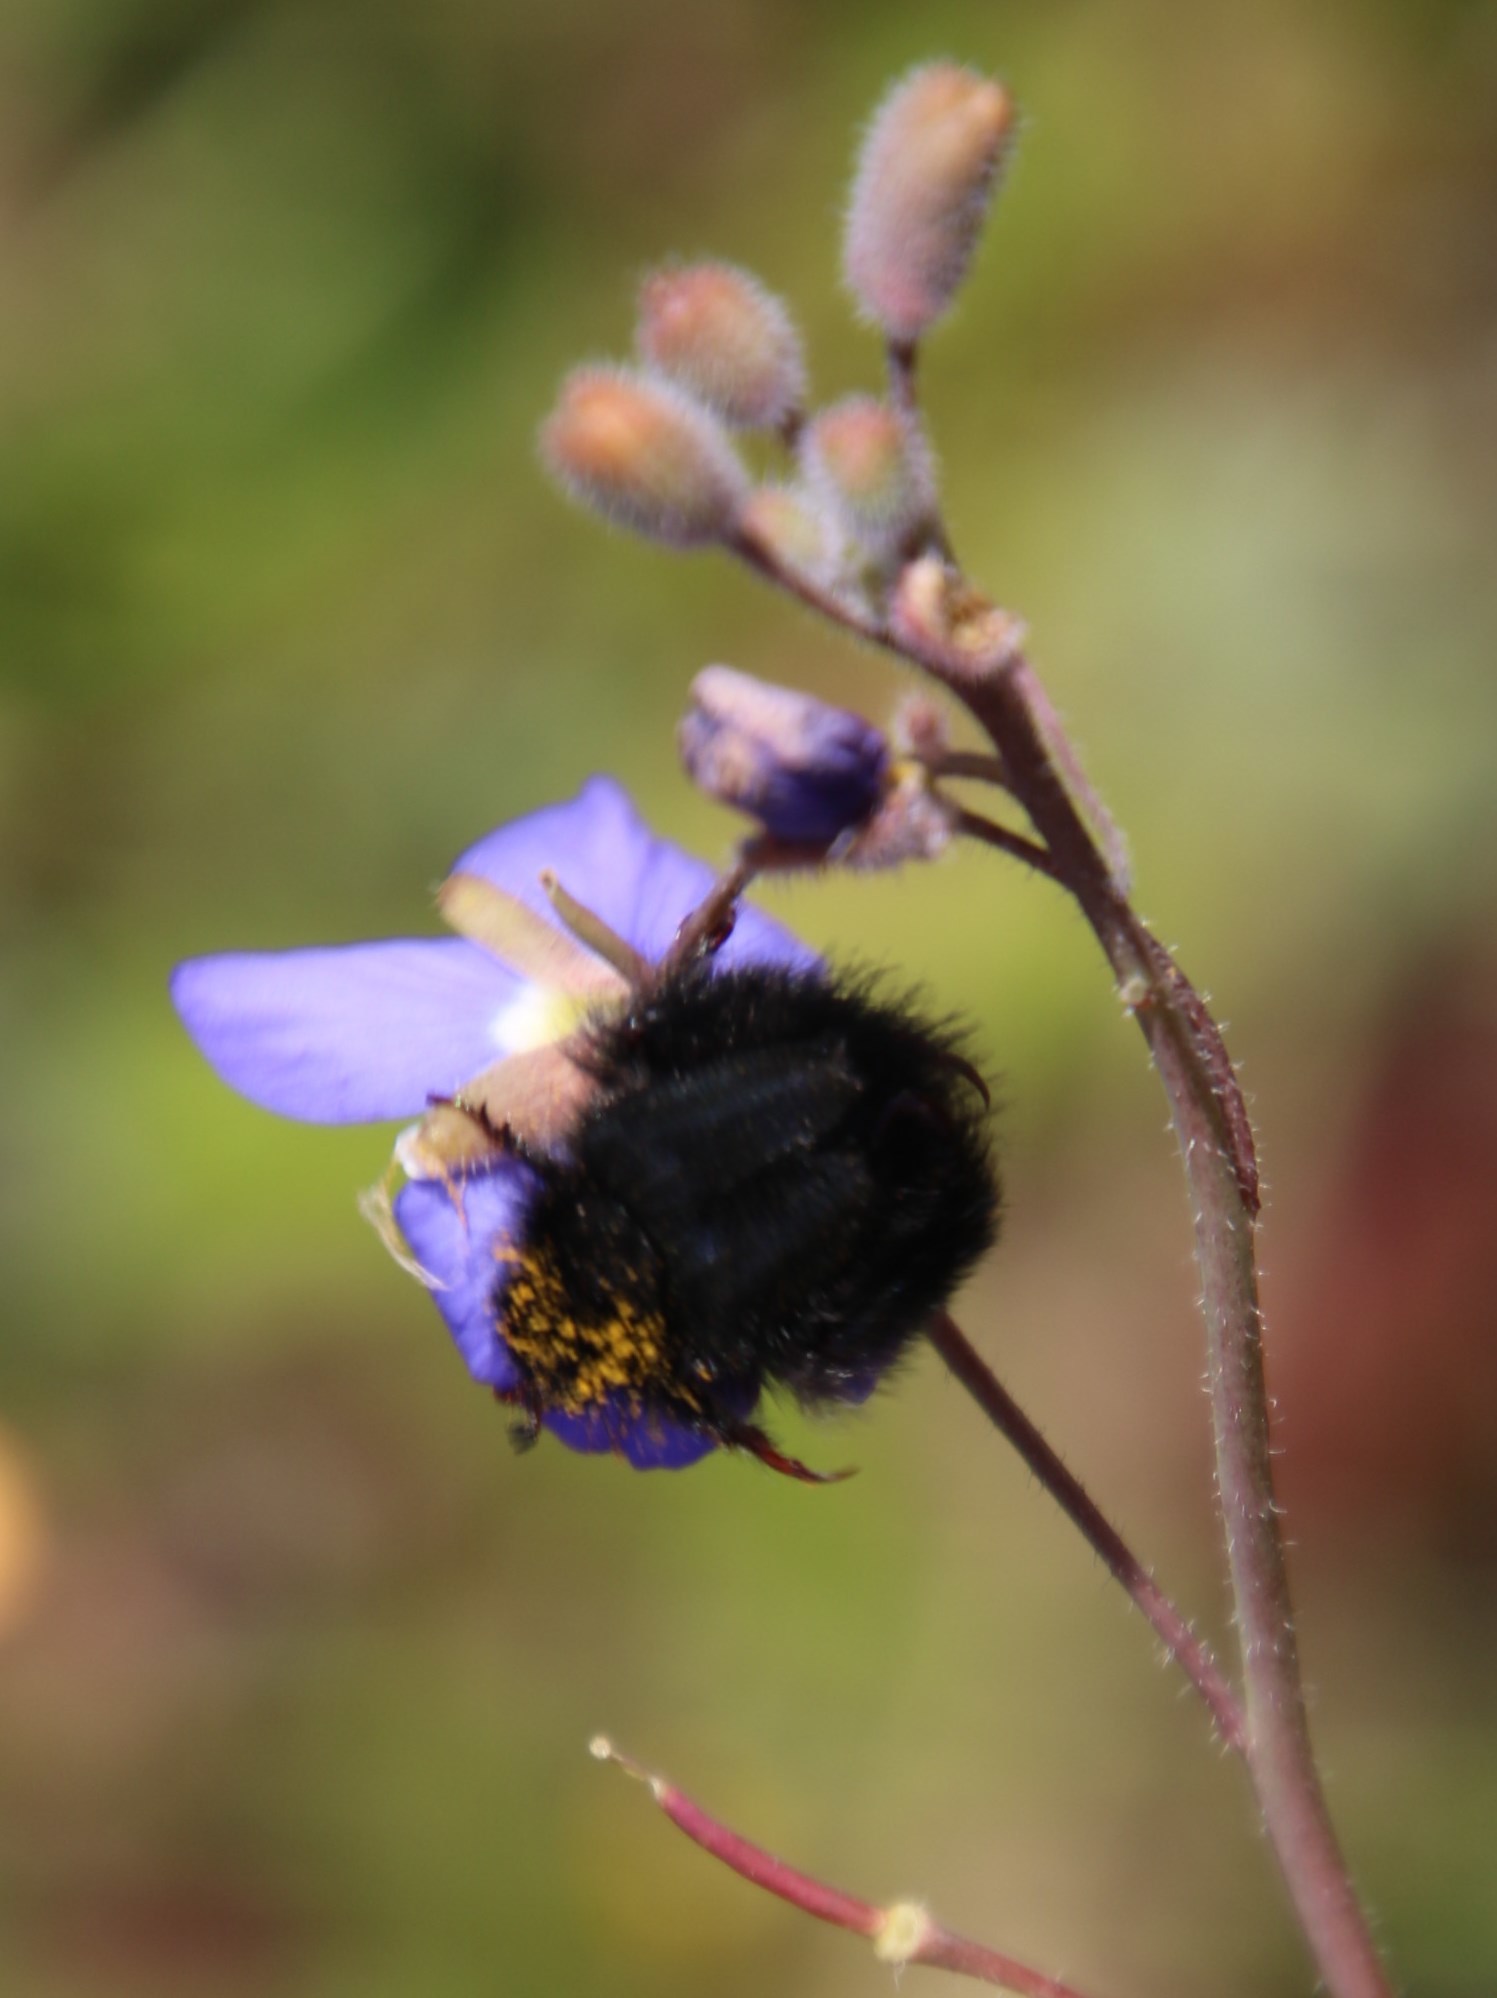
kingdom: Plantae
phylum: Tracheophyta
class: Magnoliopsida
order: Brassicales
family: Brassicaceae
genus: Heliophila
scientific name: Heliophila coronopifolia
